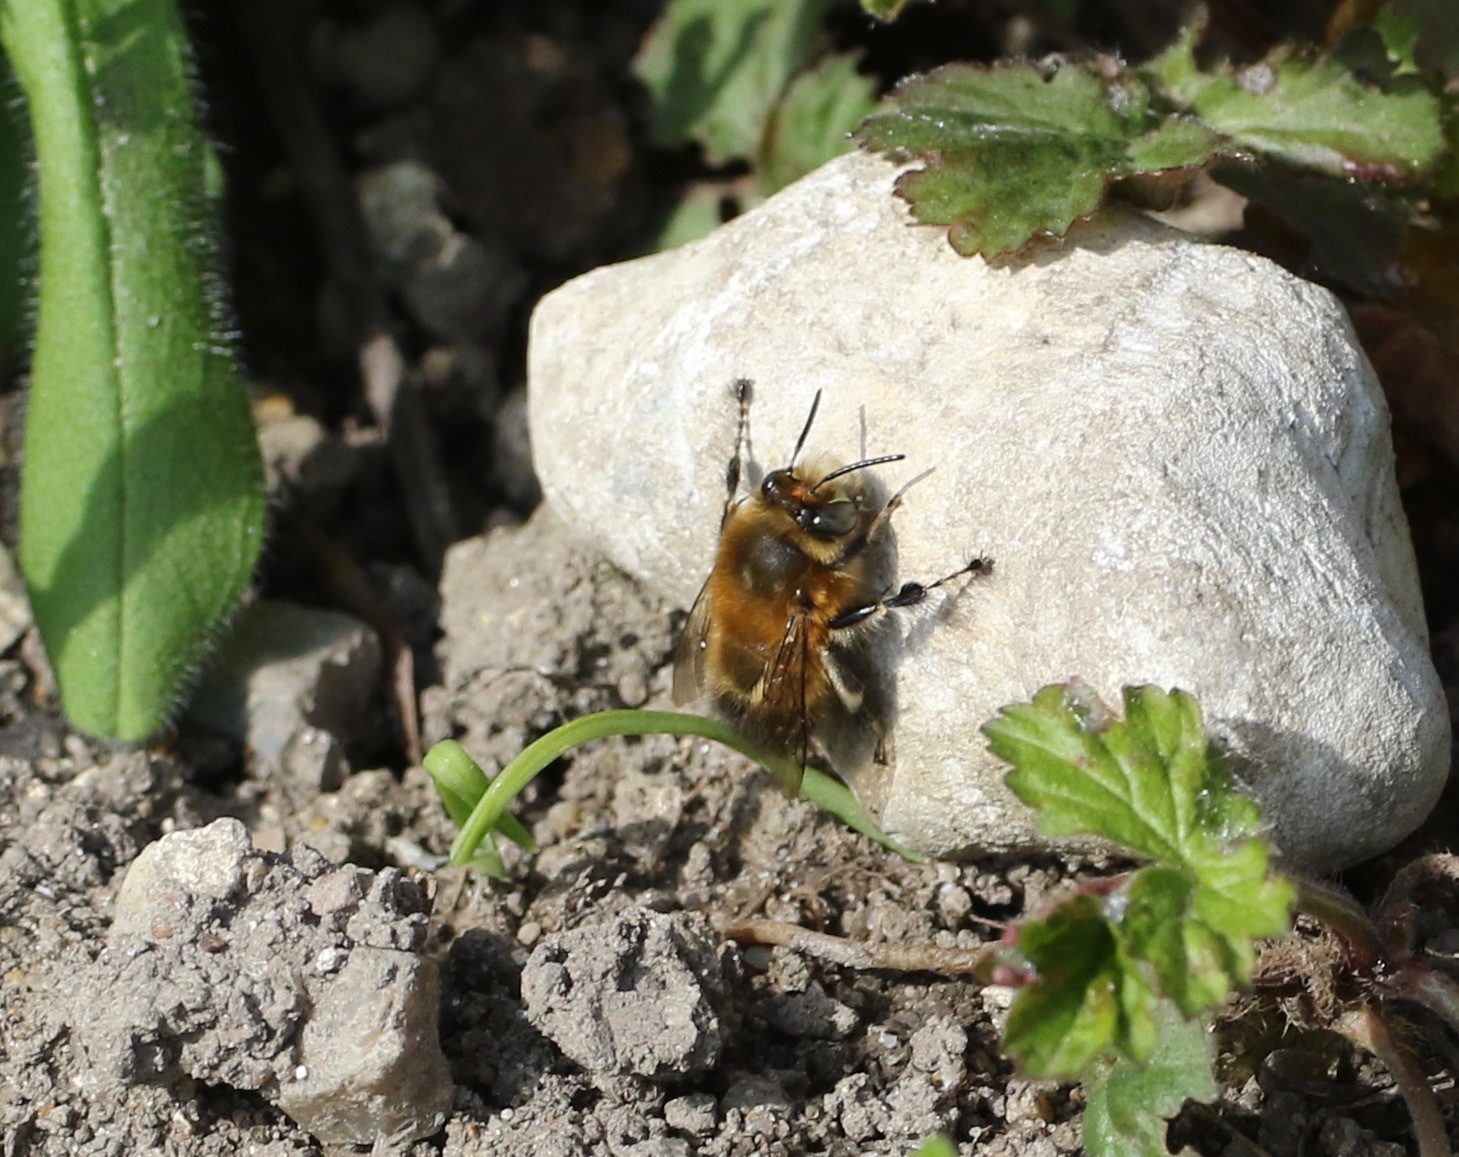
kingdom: Animalia
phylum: Arthropoda
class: Insecta
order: Hymenoptera
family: Apidae
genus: Anthophora
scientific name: Anthophora plumipes
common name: Hairy-footed flower bee
